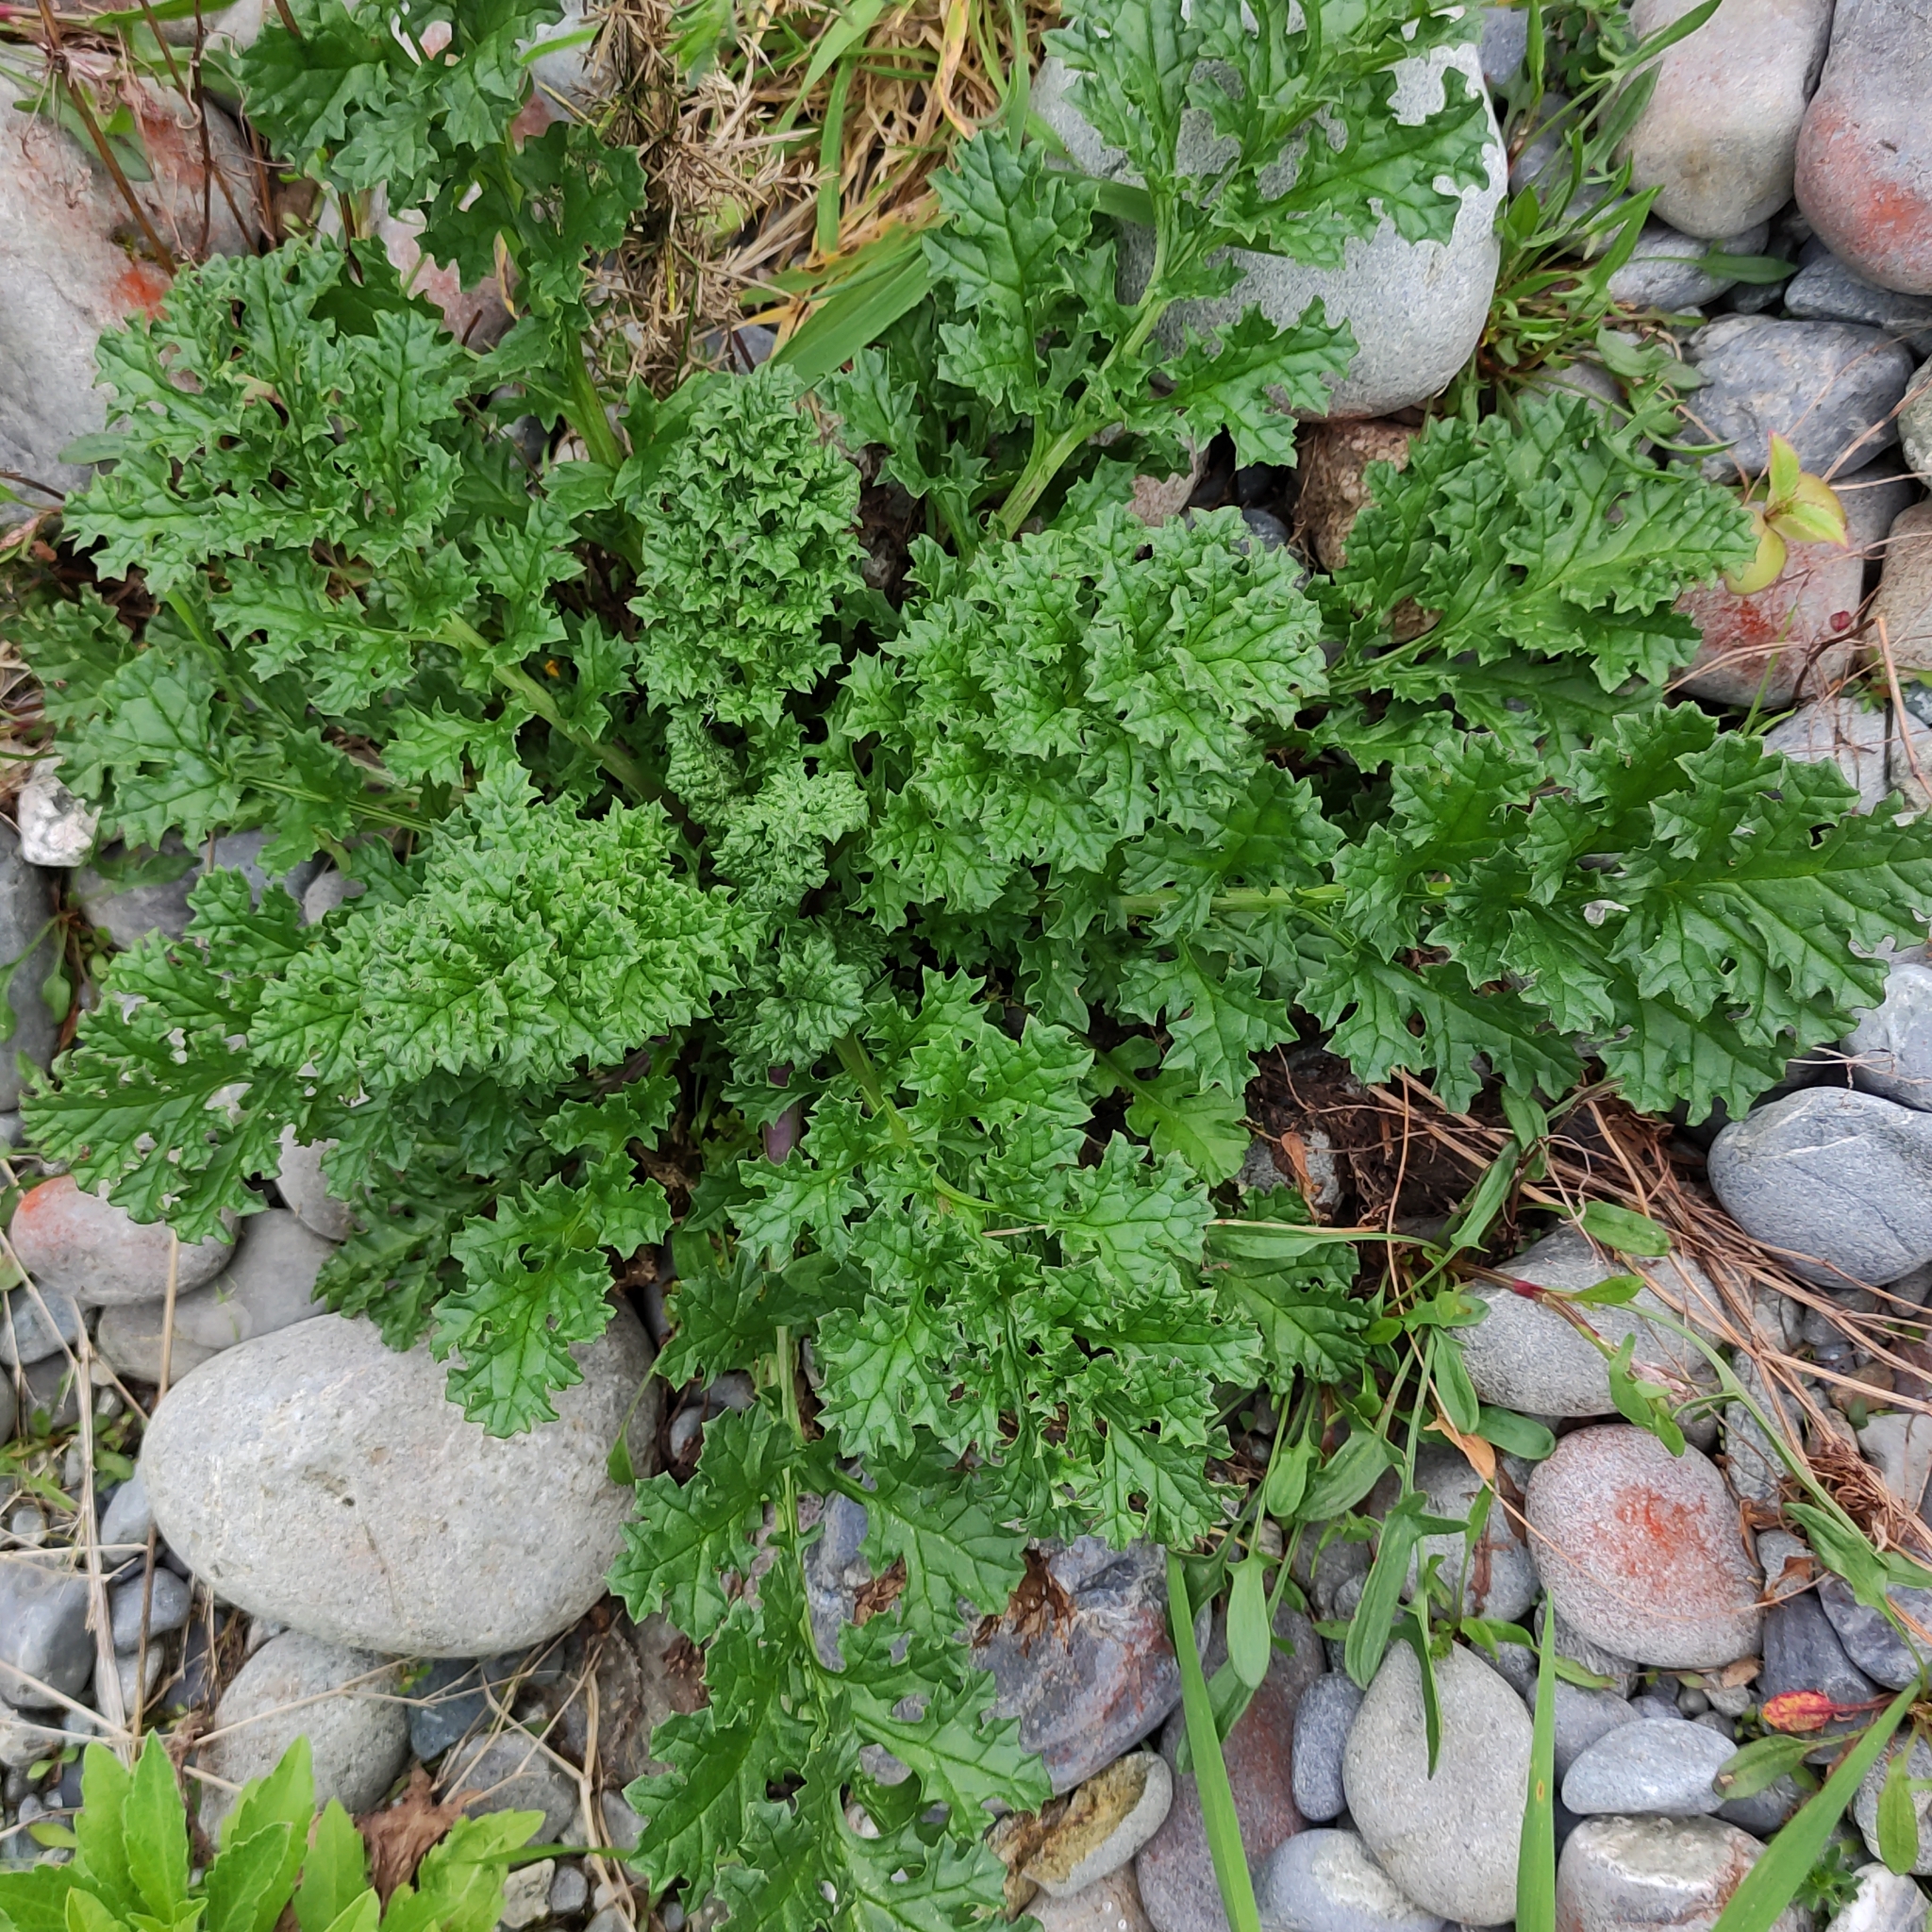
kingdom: Plantae
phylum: Tracheophyta
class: Magnoliopsida
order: Asterales
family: Asteraceae
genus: Jacobaea
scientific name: Jacobaea vulgaris
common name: Stinking willie
